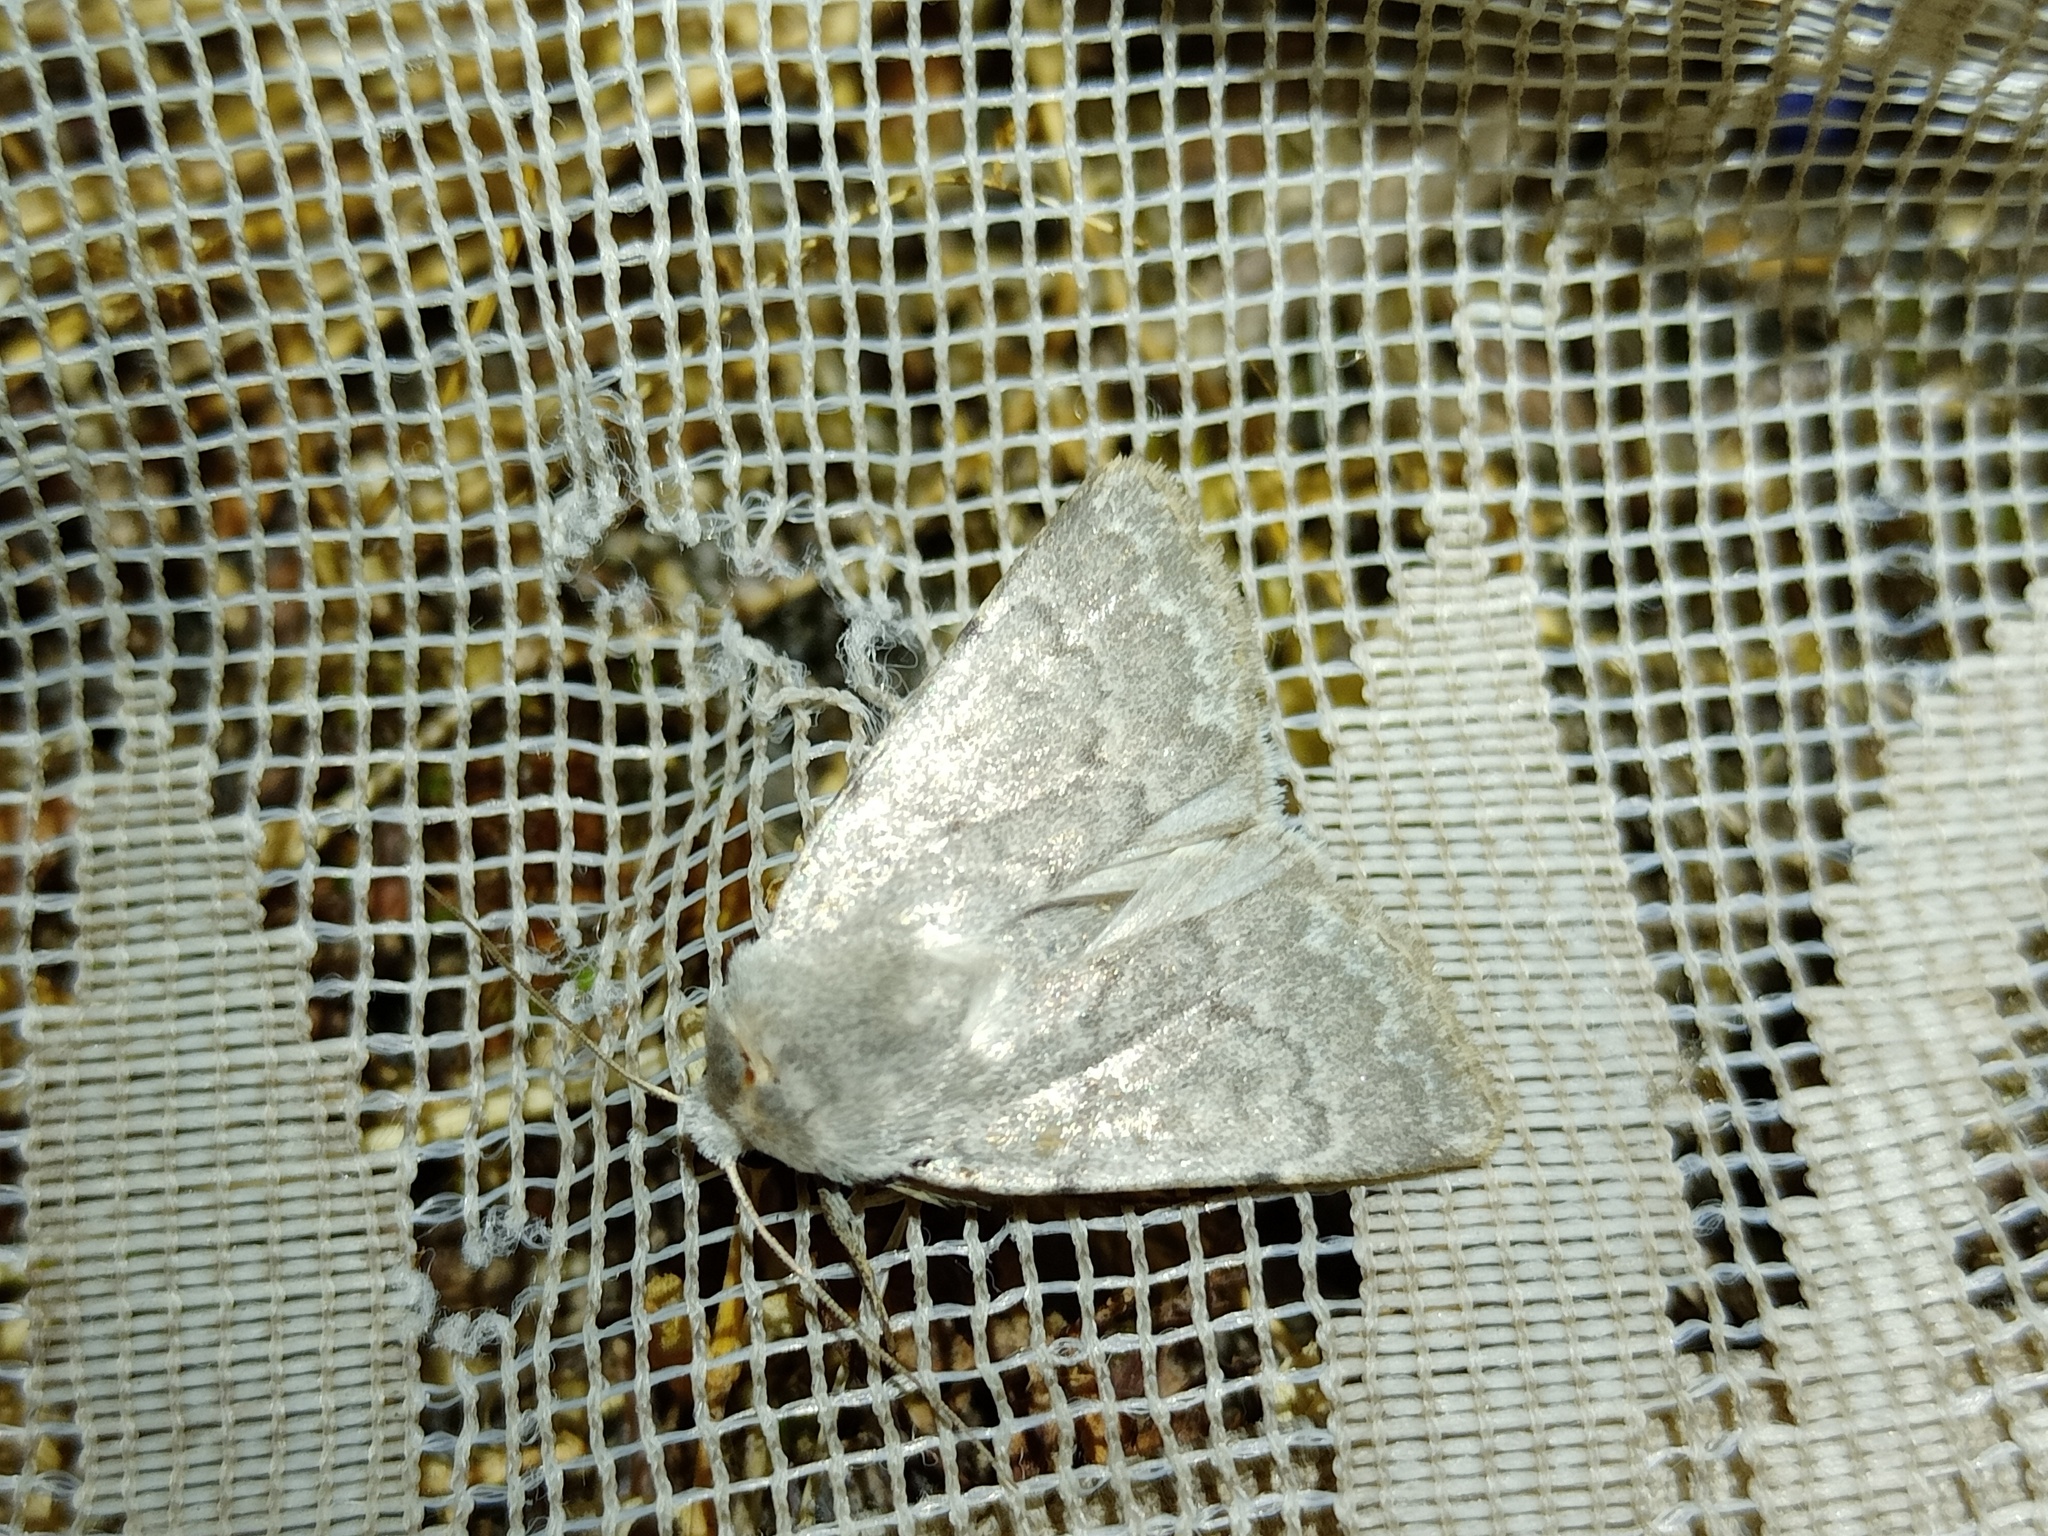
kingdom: Animalia
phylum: Arthropoda
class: Insecta
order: Lepidoptera
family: Noctuidae
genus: Caradrina
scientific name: Caradrina gilva
